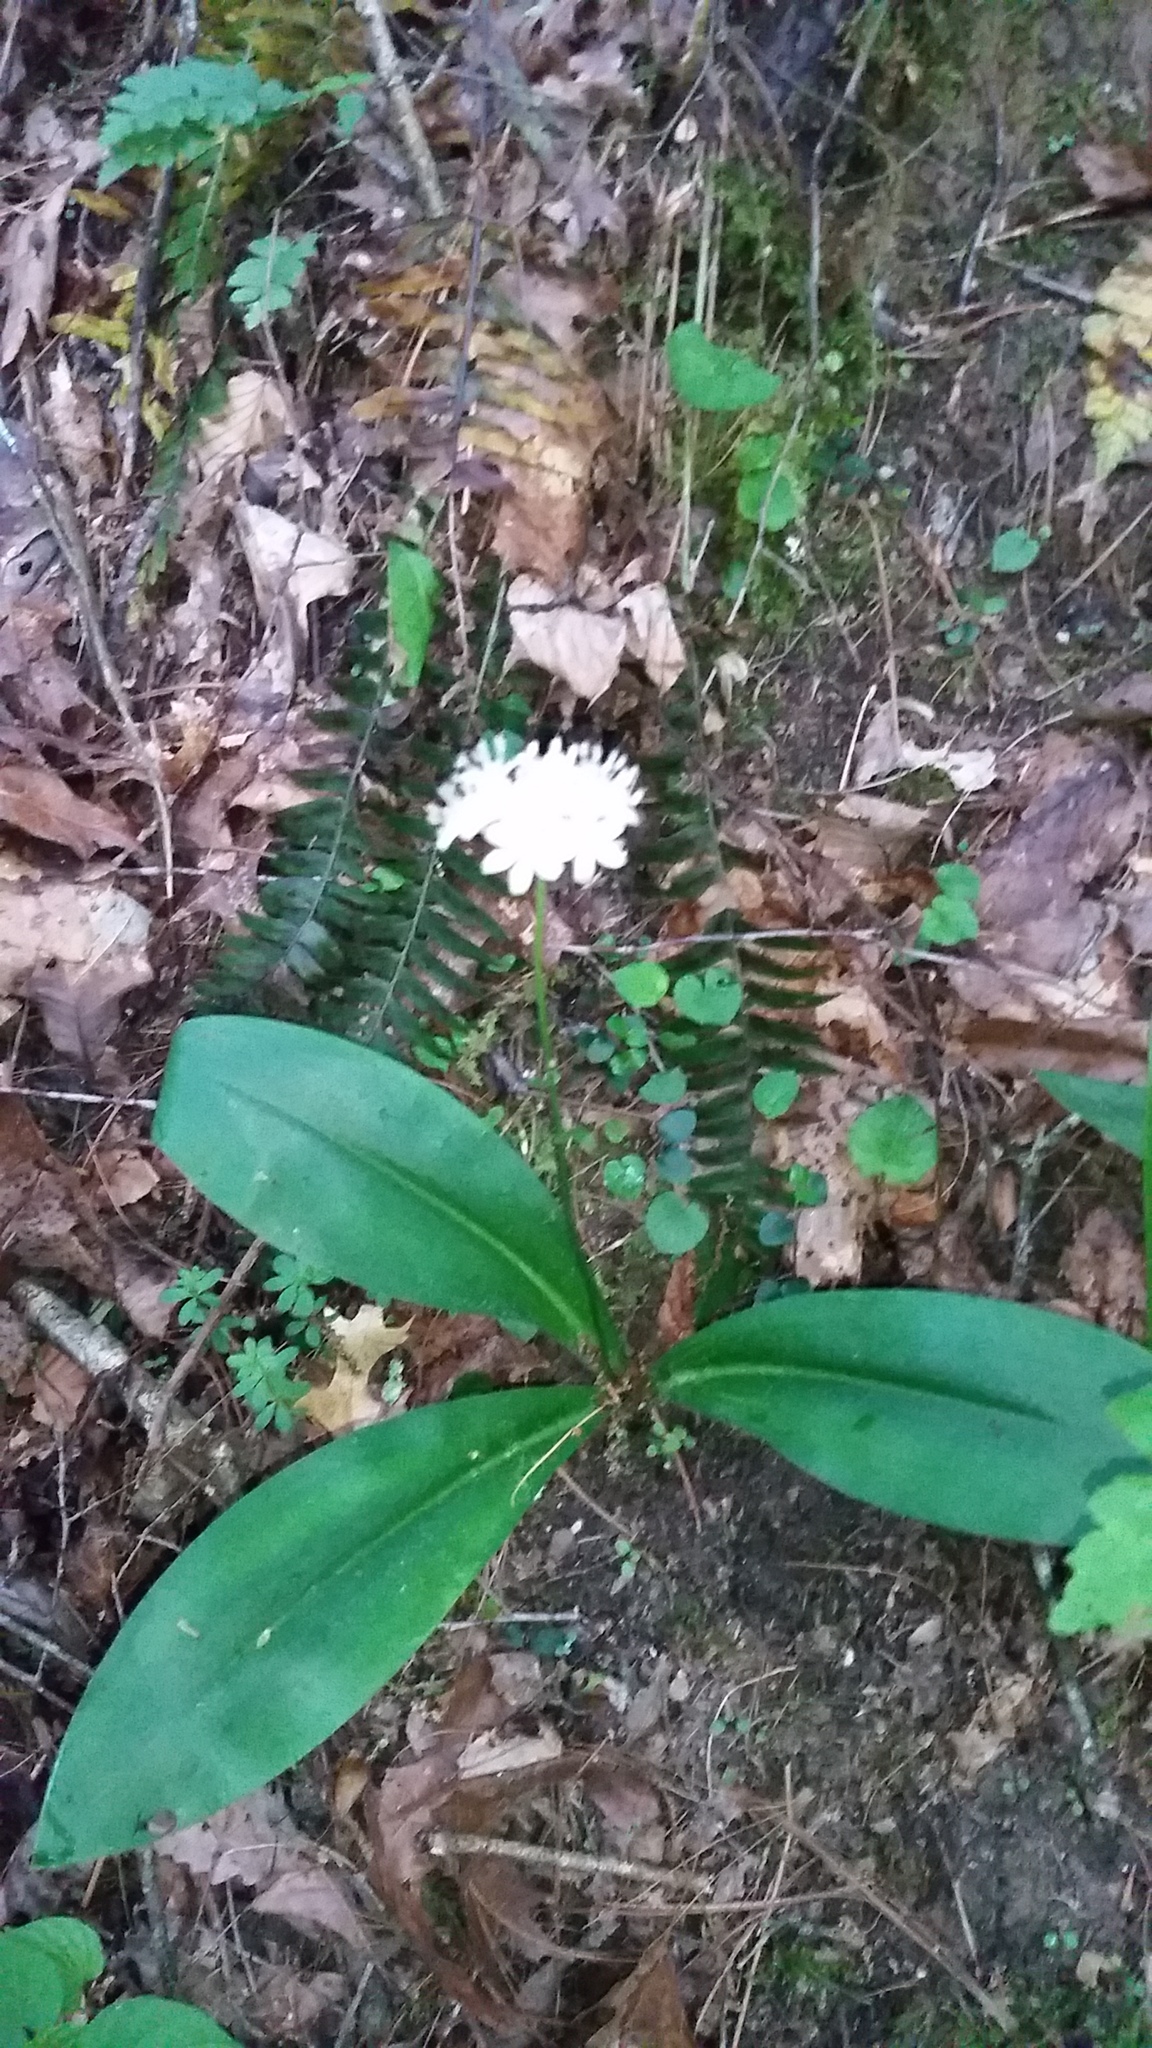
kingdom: Plantae
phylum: Tracheophyta
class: Liliopsida
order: Liliales
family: Liliaceae
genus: Clintonia
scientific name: Clintonia umbellulata
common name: Speckle wood-lily
